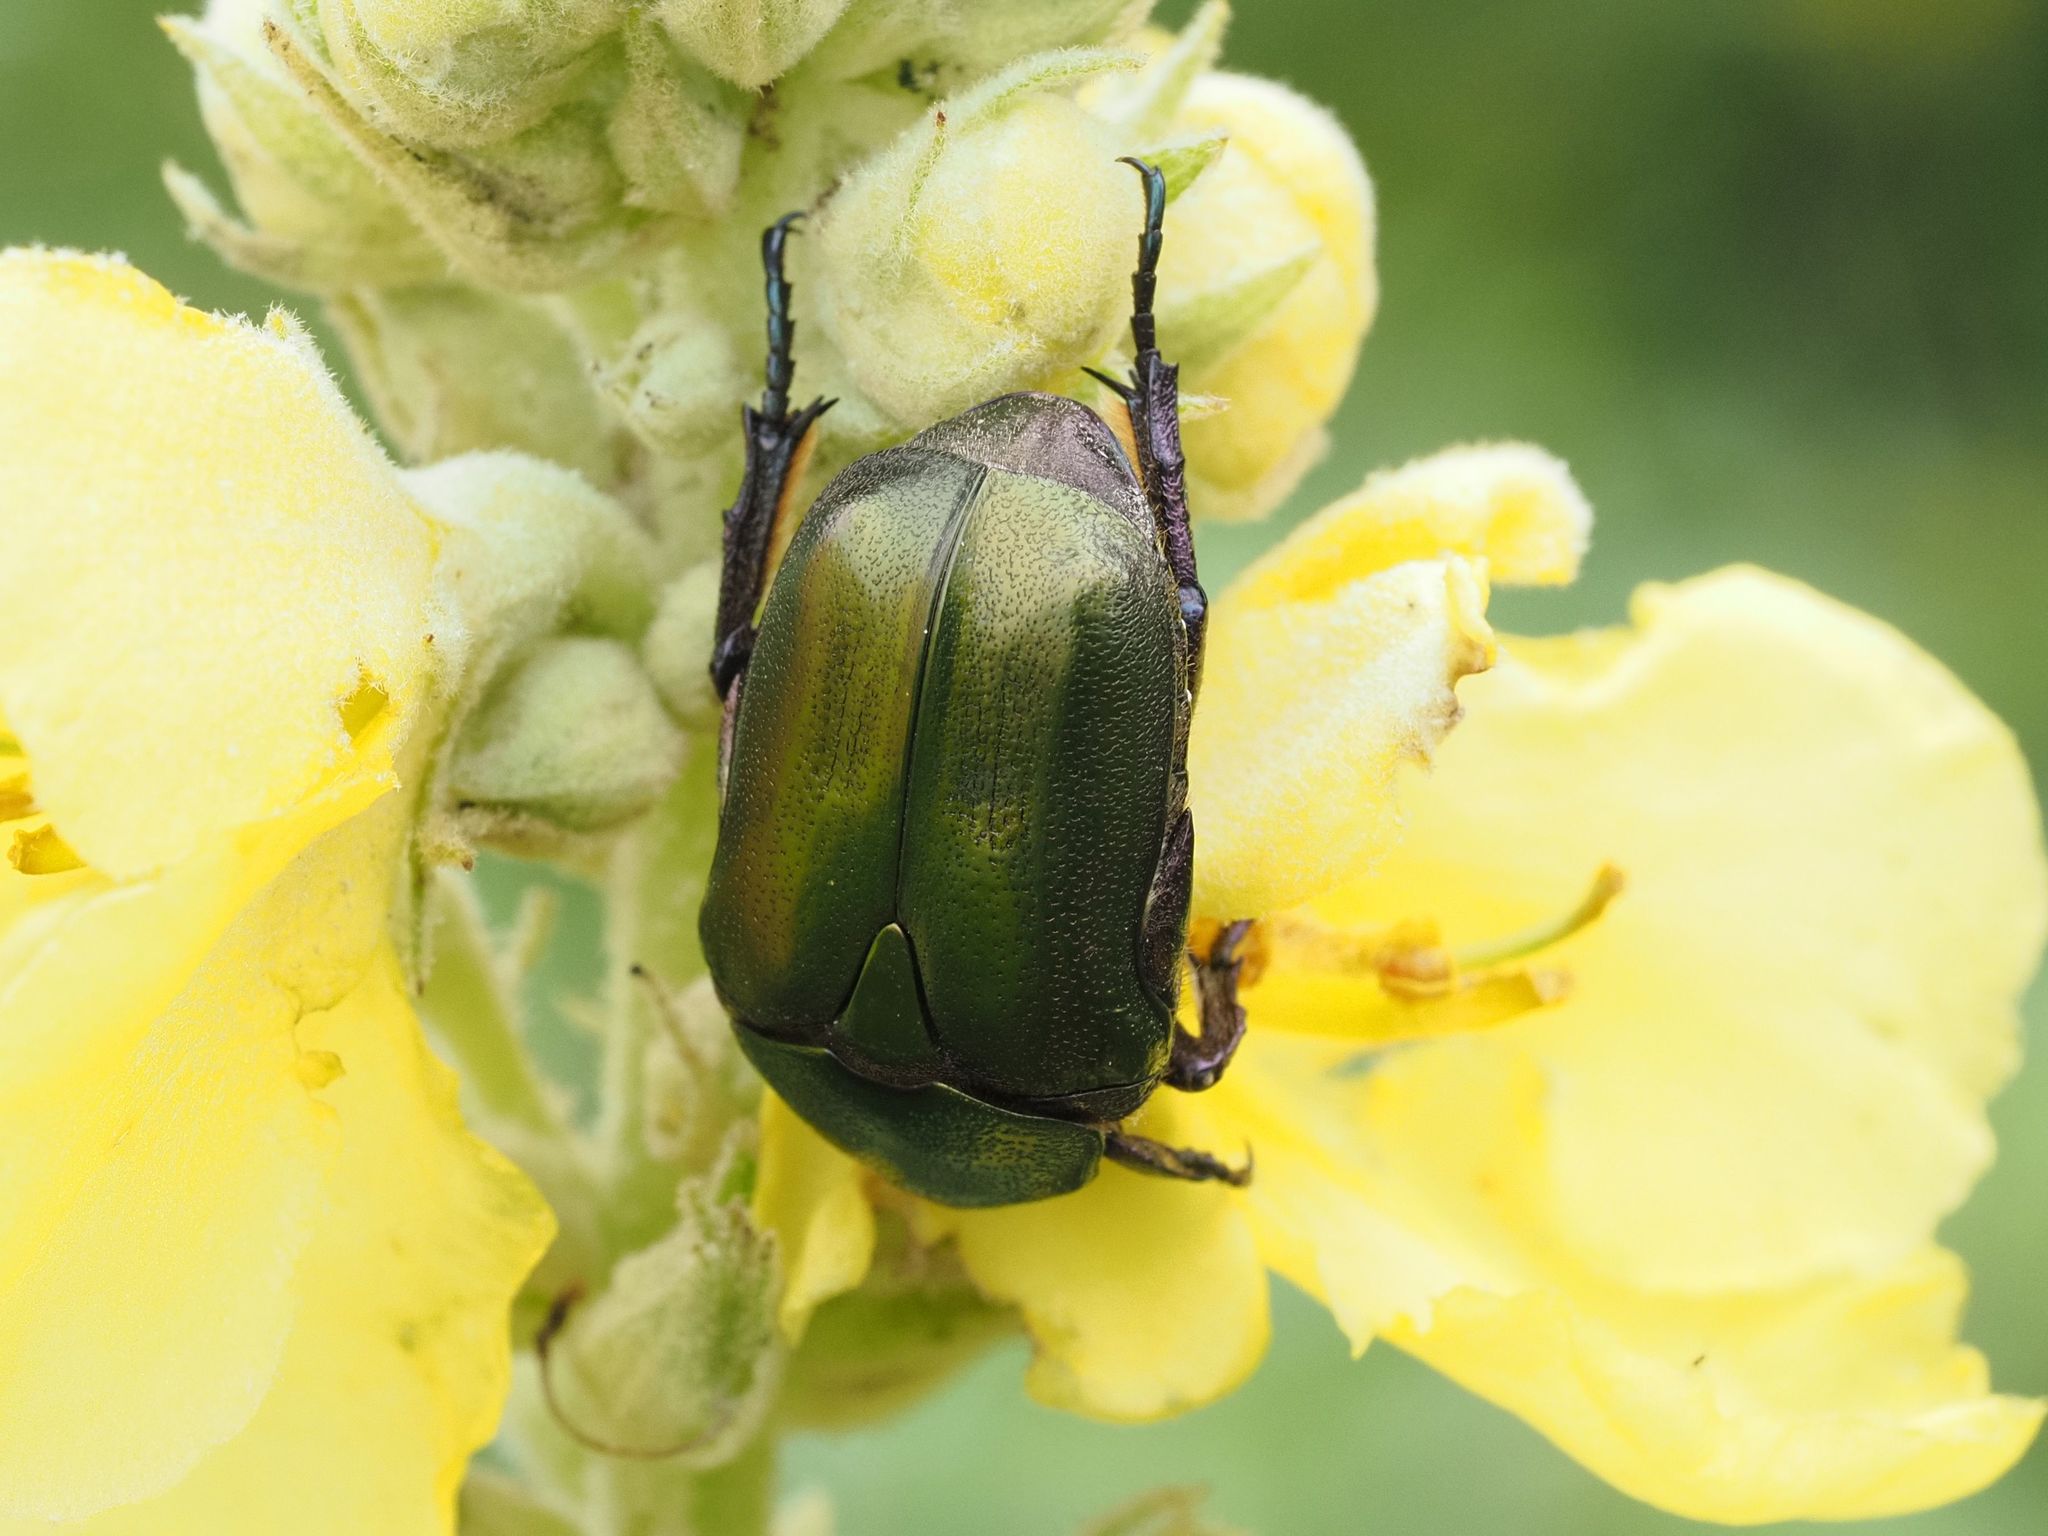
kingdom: Animalia
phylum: Arthropoda
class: Insecta
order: Coleoptera
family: Scarabaeidae
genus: Protaetia
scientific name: Protaetia cuprea
